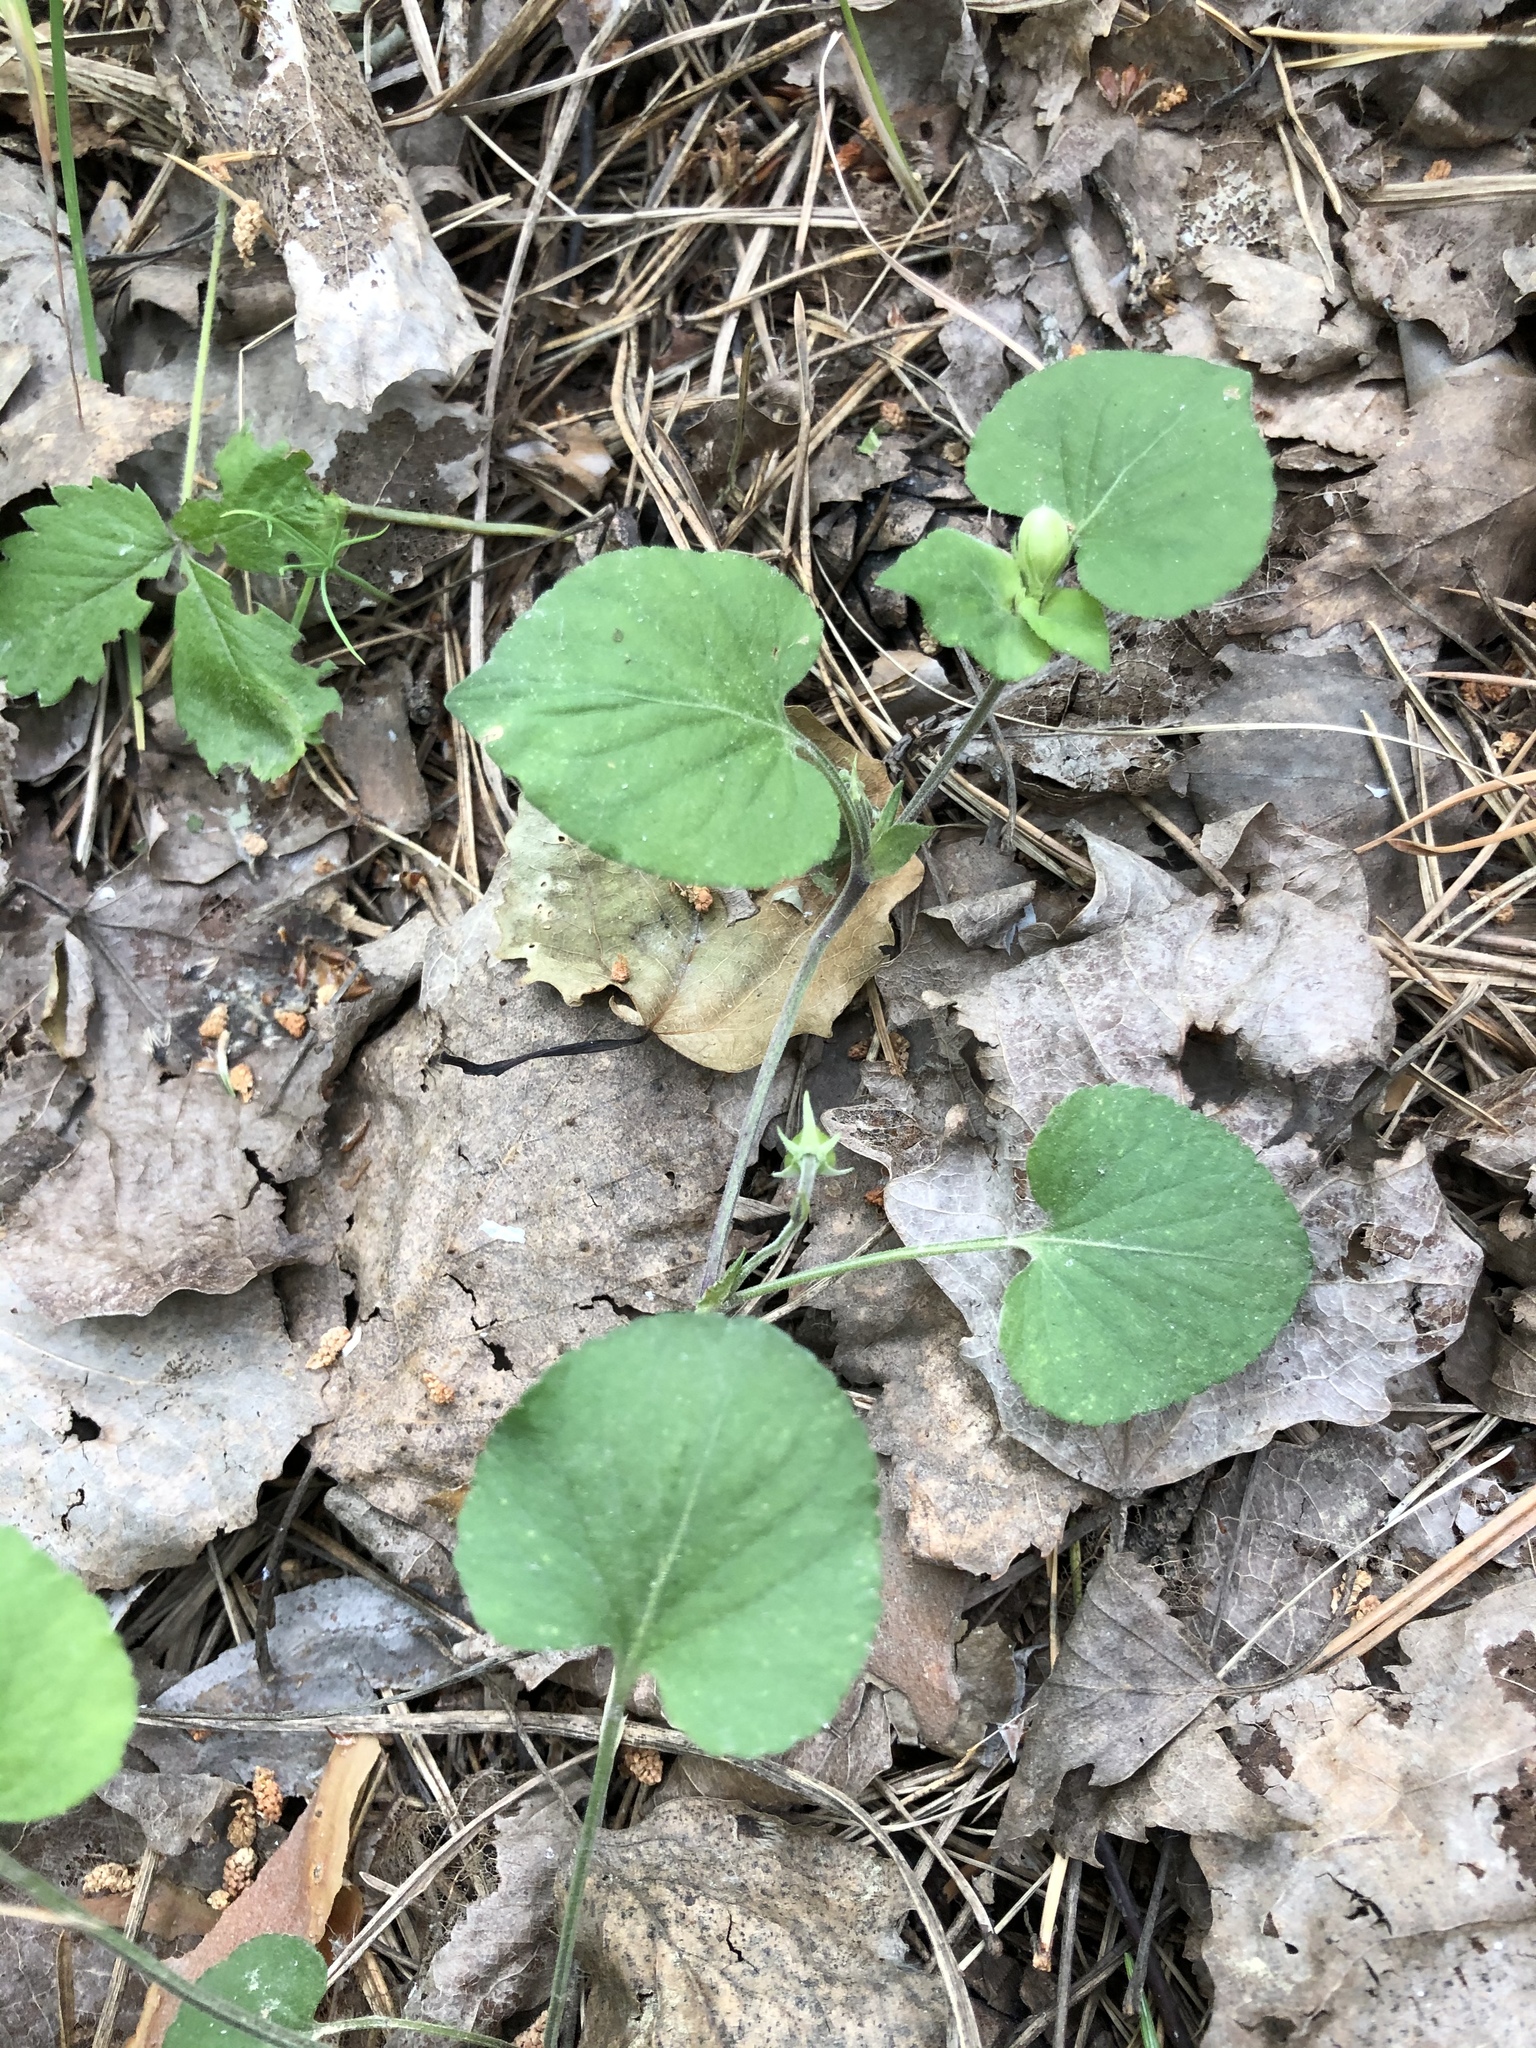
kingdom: Plantae
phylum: Tracheophyta
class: Magnoliopsida
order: Malpighiales
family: Violaceae
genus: Viola
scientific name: Viola rupestris
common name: Teesdale violet
